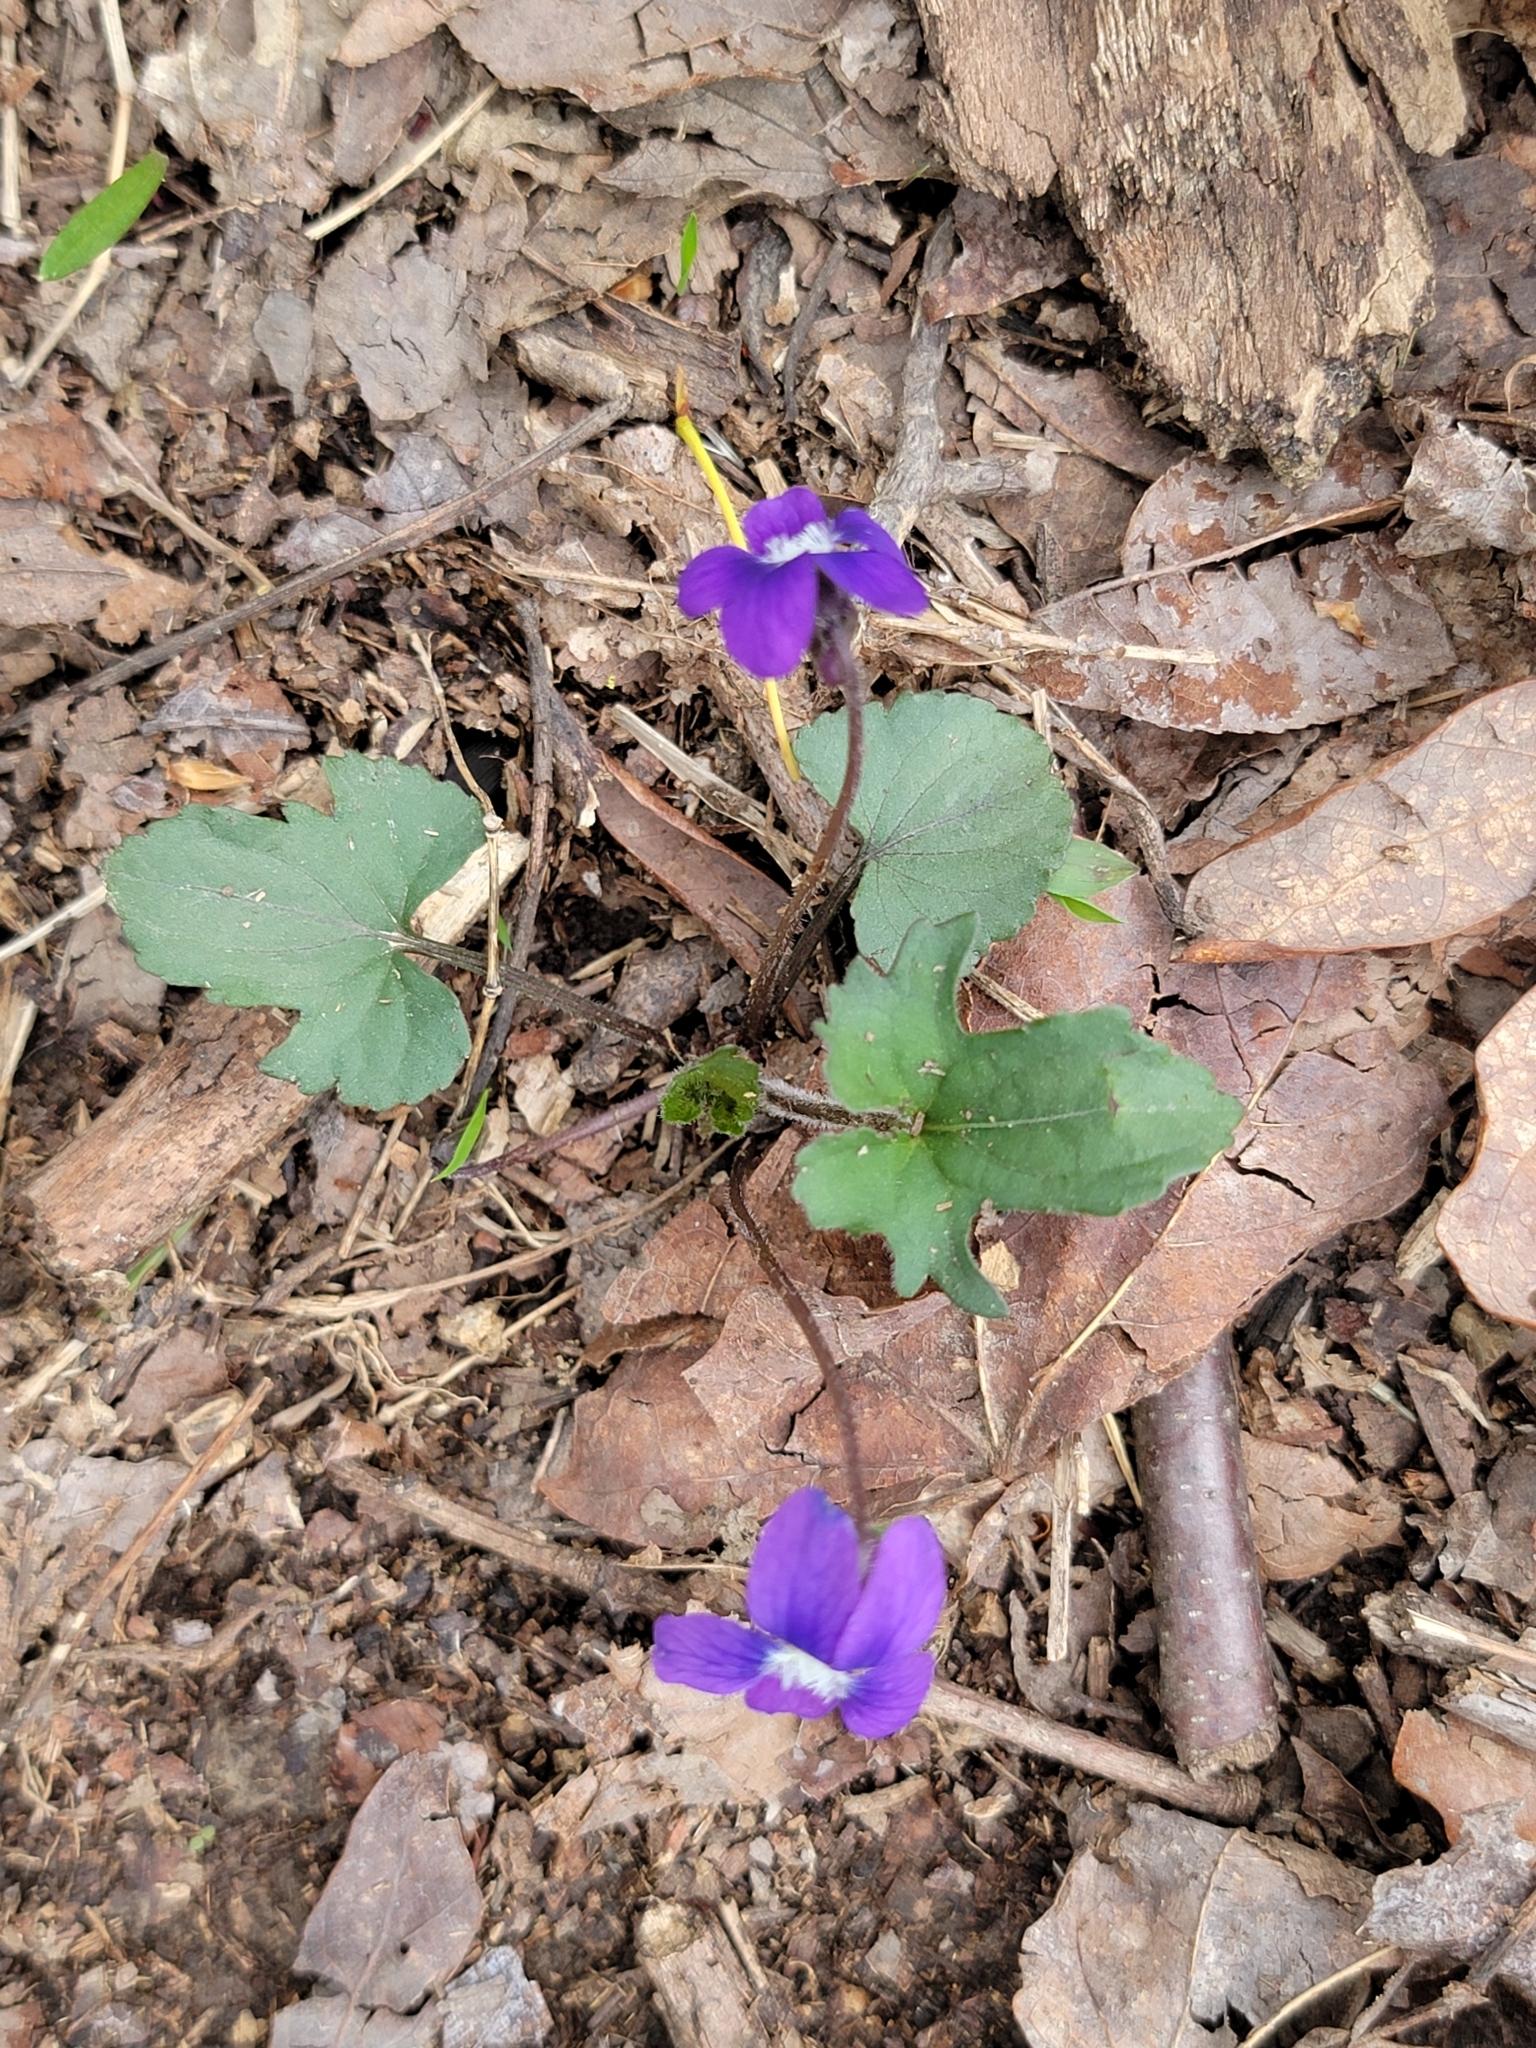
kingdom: Plantae
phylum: Tracheophyta
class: Magnoliopsida
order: Malpighiales
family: Violaceae
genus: Viola
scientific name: Viola palmata
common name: Early blue violet
